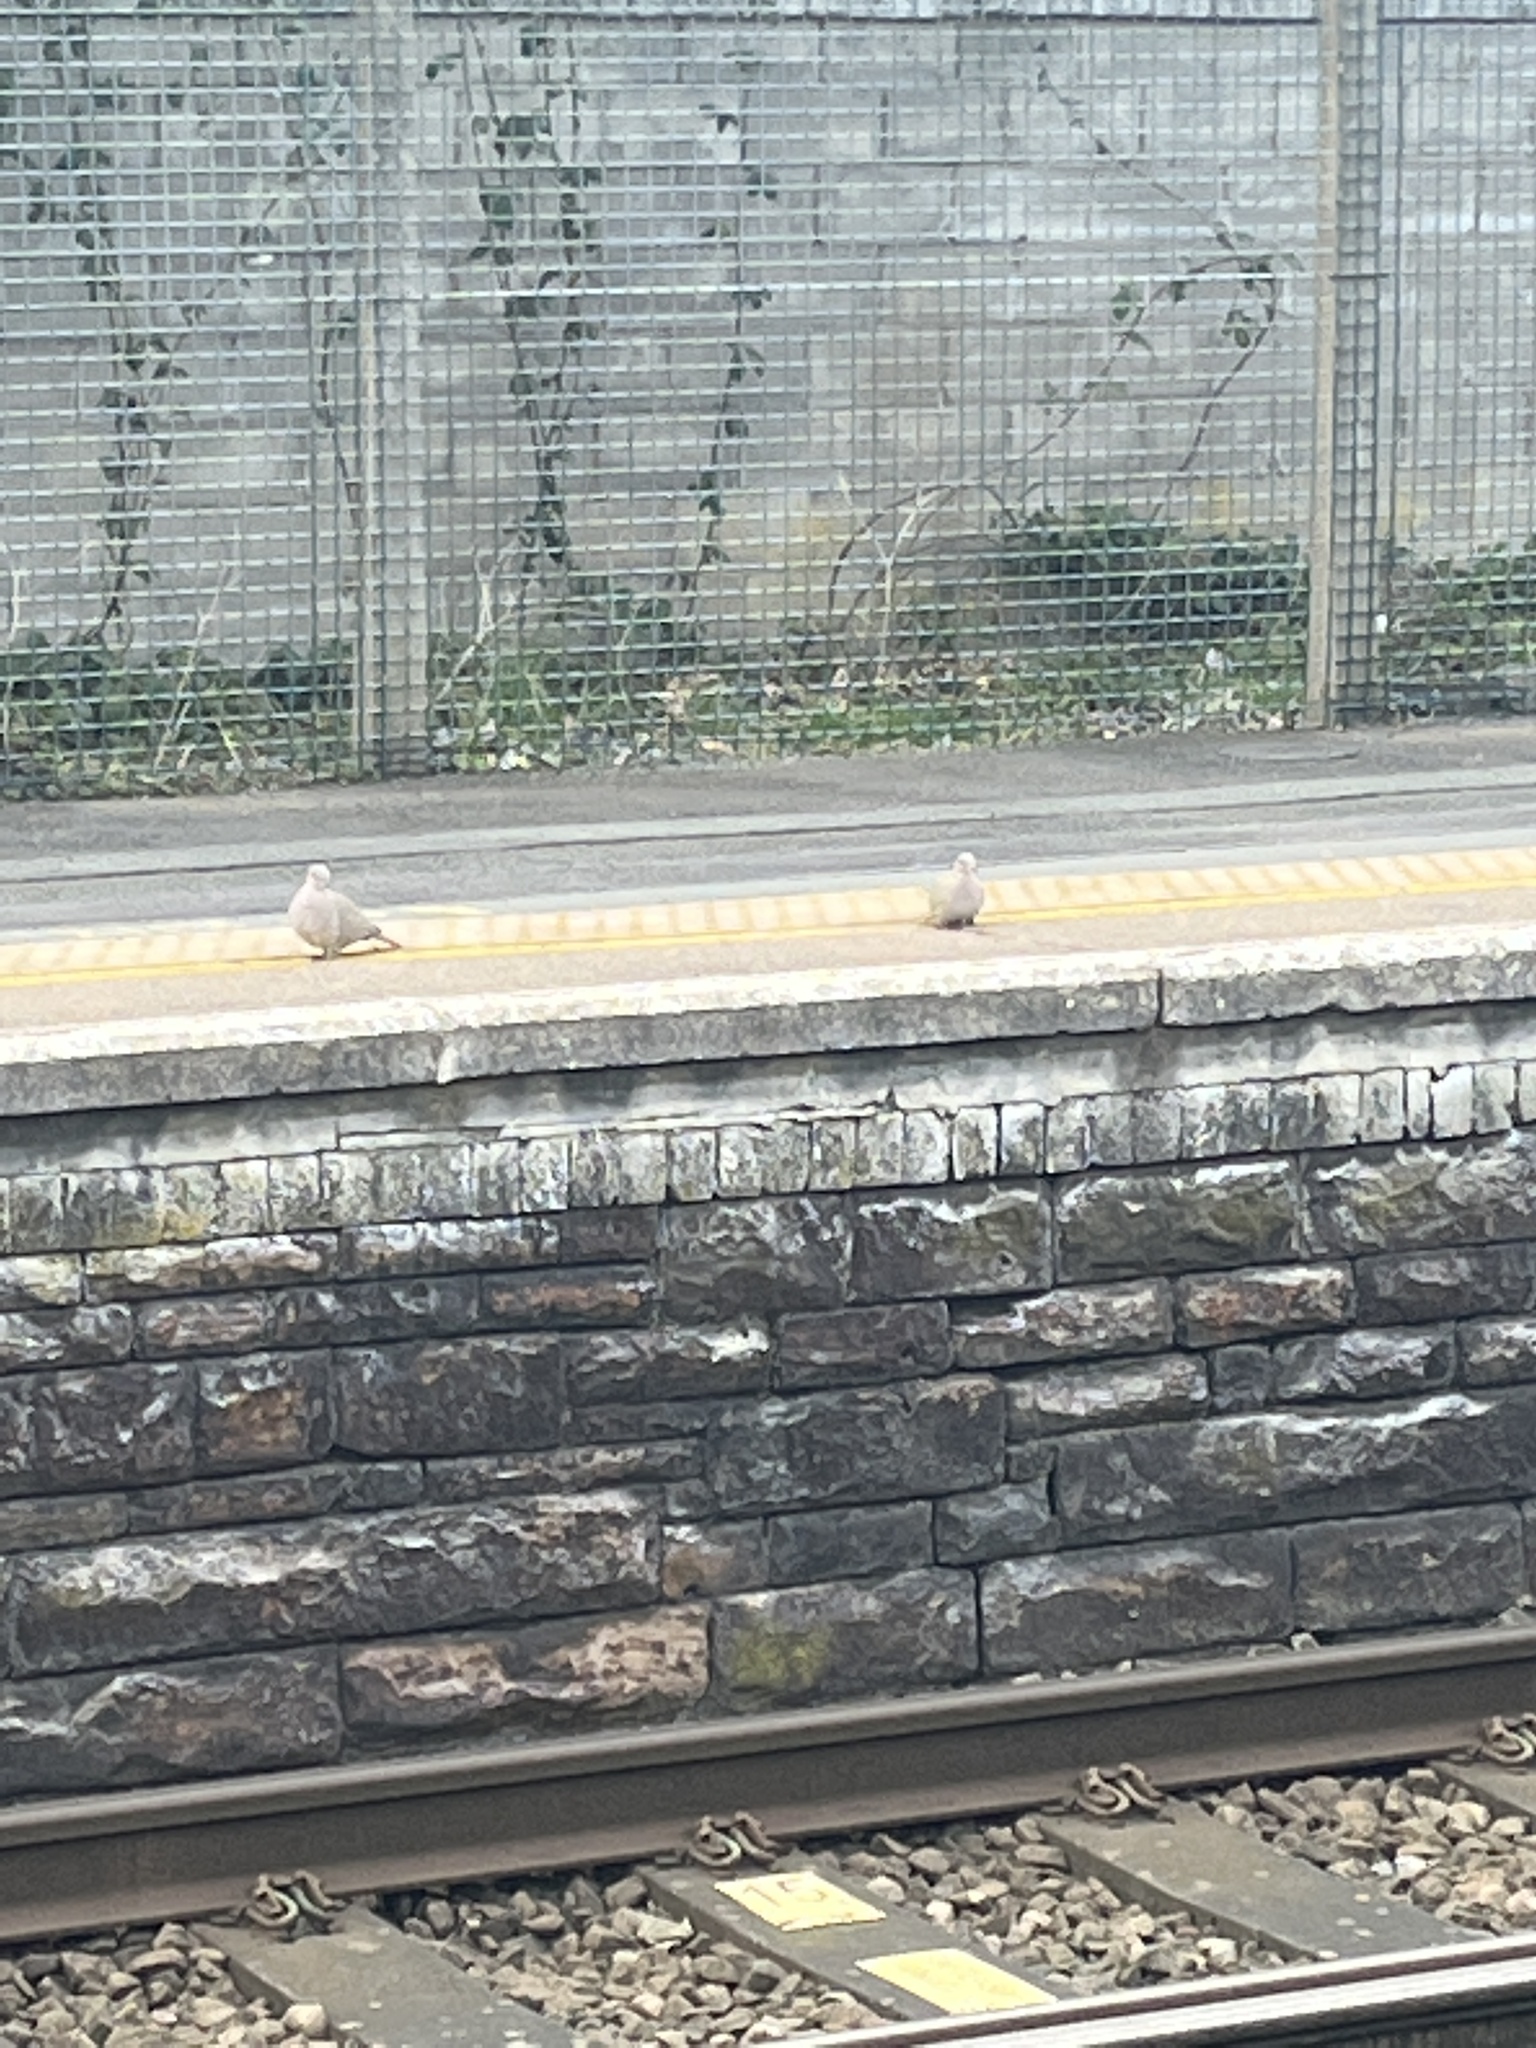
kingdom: Animalia
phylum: Chordata
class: Aves
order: Columbiformes
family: Columbidae
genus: Streptopelia
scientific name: Streptopelia decaocto
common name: Eurasian collared dove
